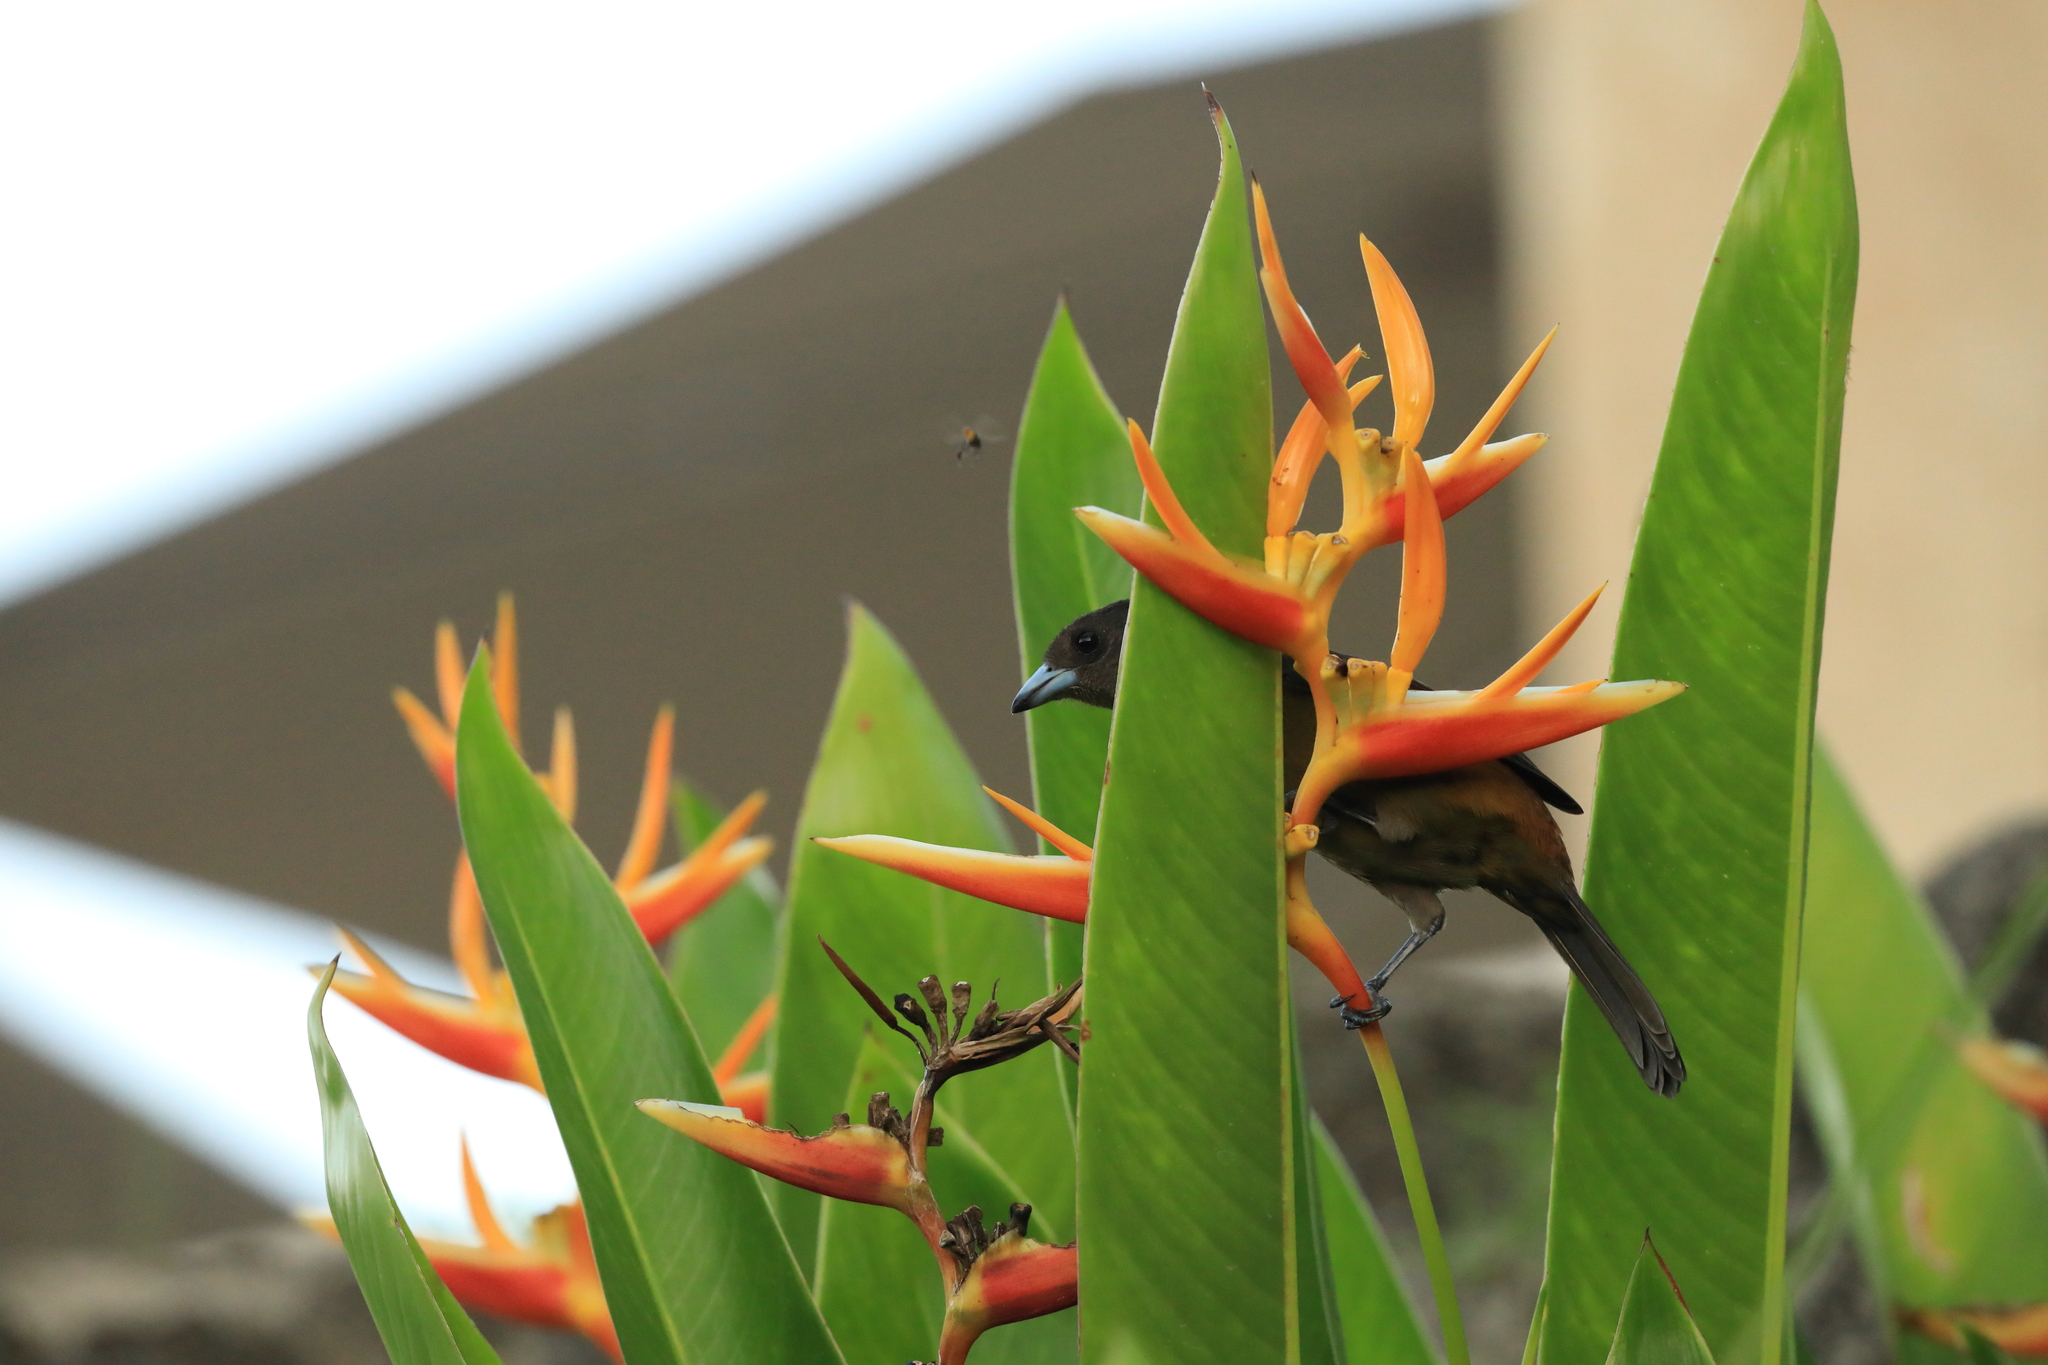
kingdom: Animalia
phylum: Chordata
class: Aves
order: Passeriformes
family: Thraupidae
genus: Ramphocelus
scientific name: Ramphocelus passerinii
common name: Passerini's tanager
